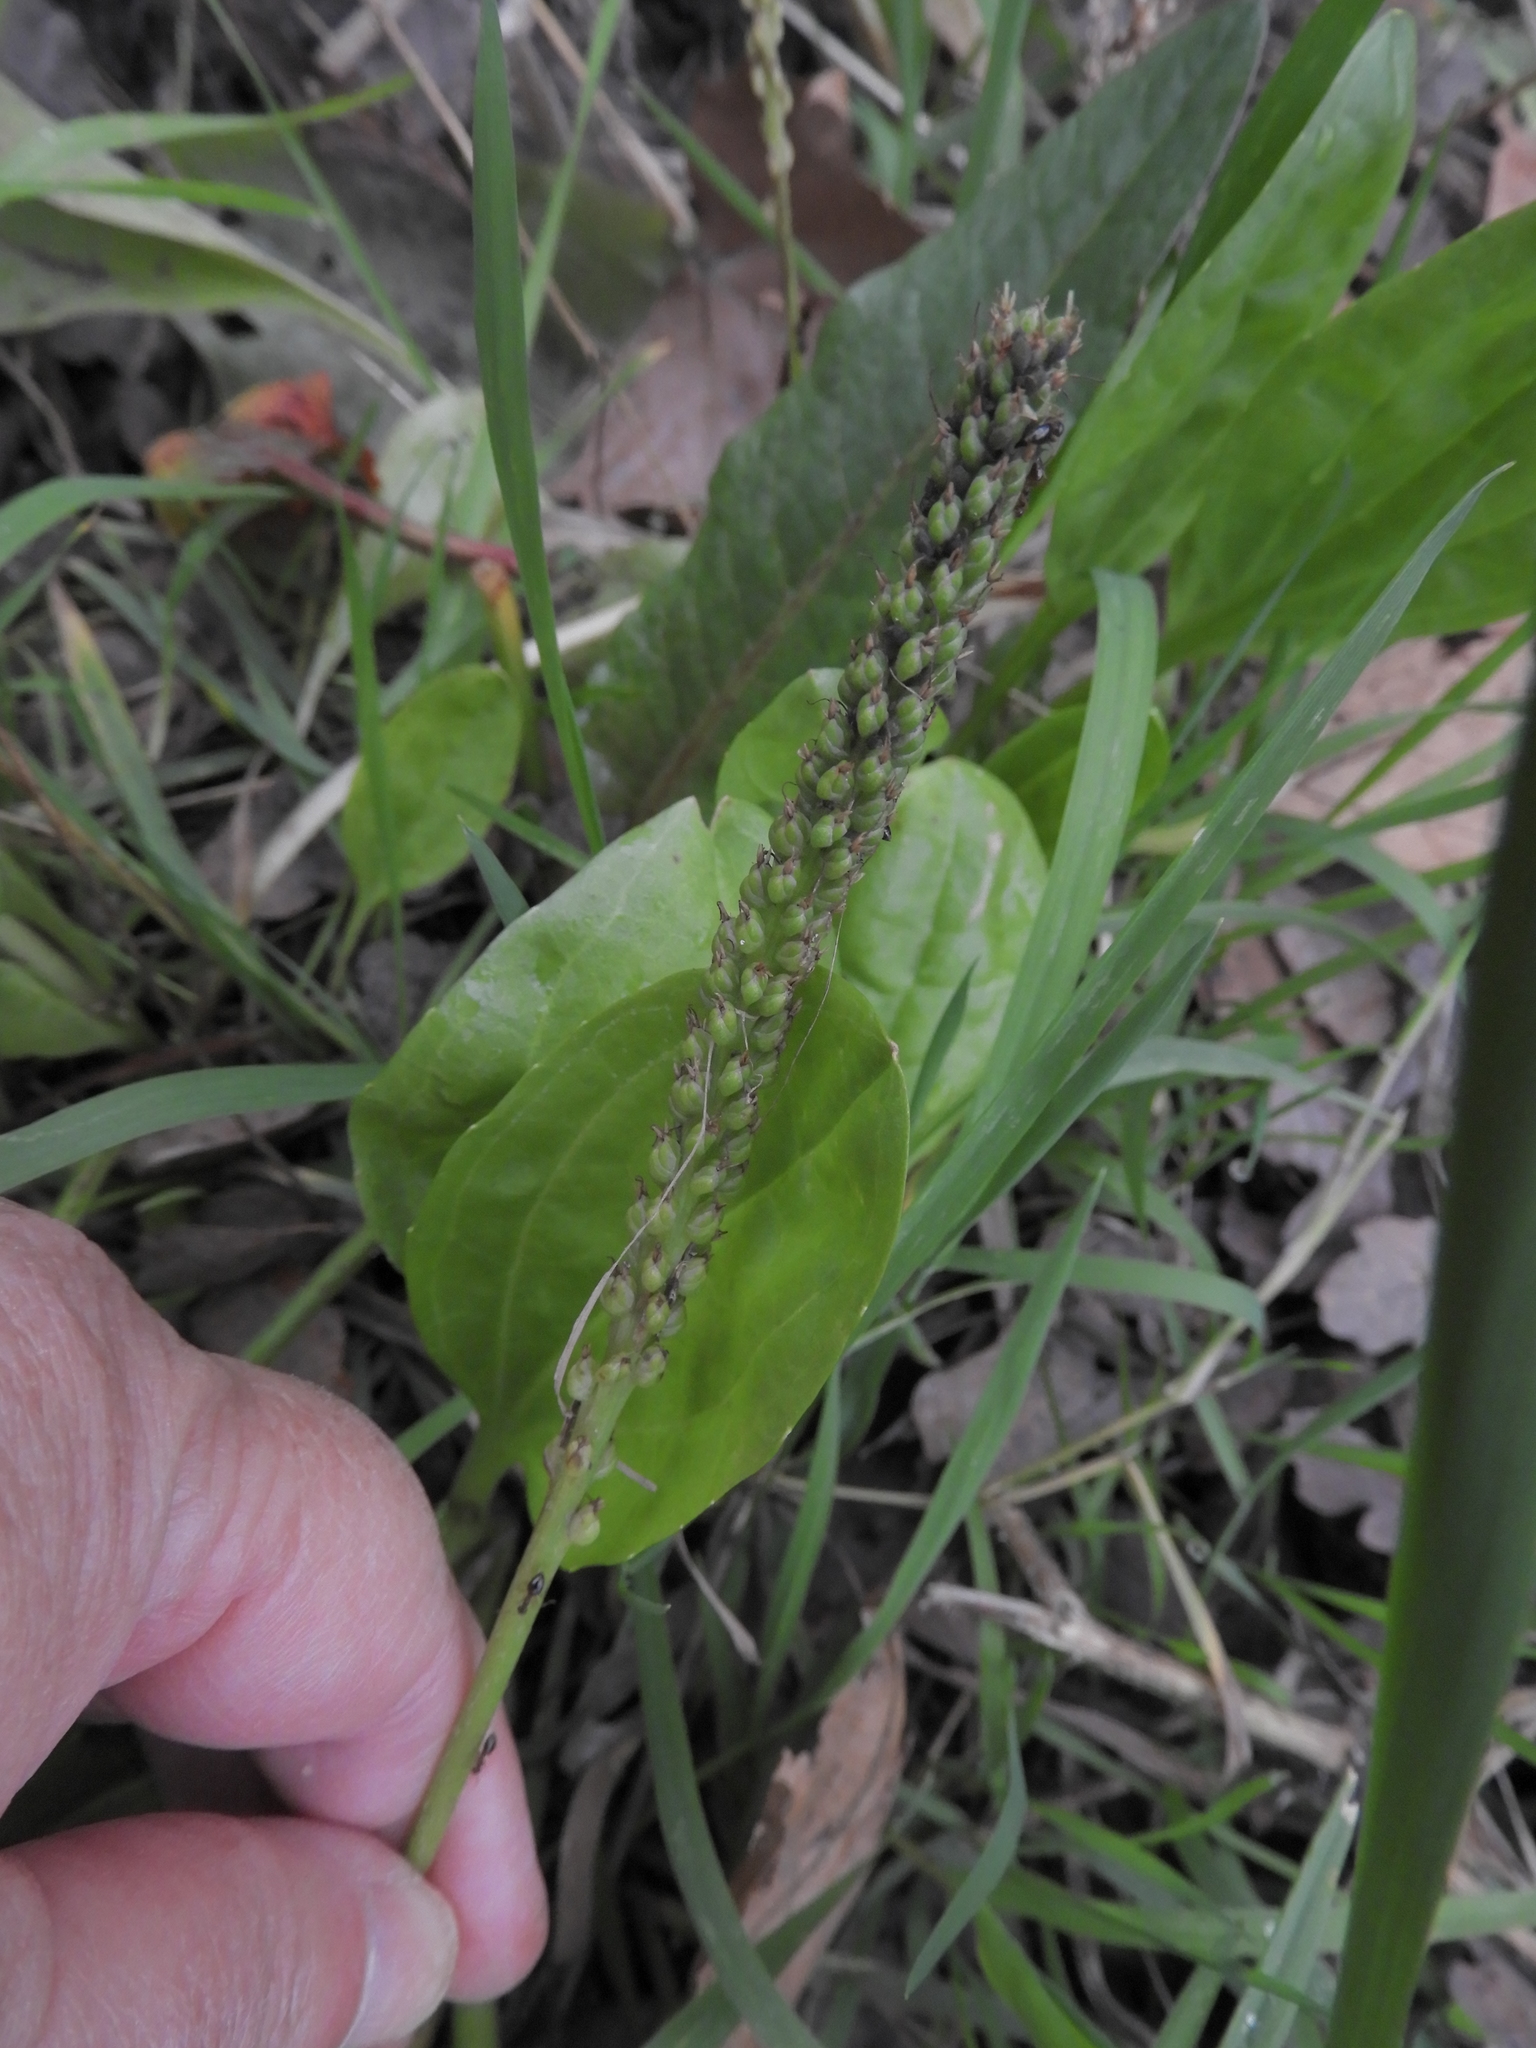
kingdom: Plantae
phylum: Tracheophyta
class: Magnoliopsida
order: Lamiales
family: Plantaginaceae
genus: Plantago
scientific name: Plantago major
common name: Common plantain
